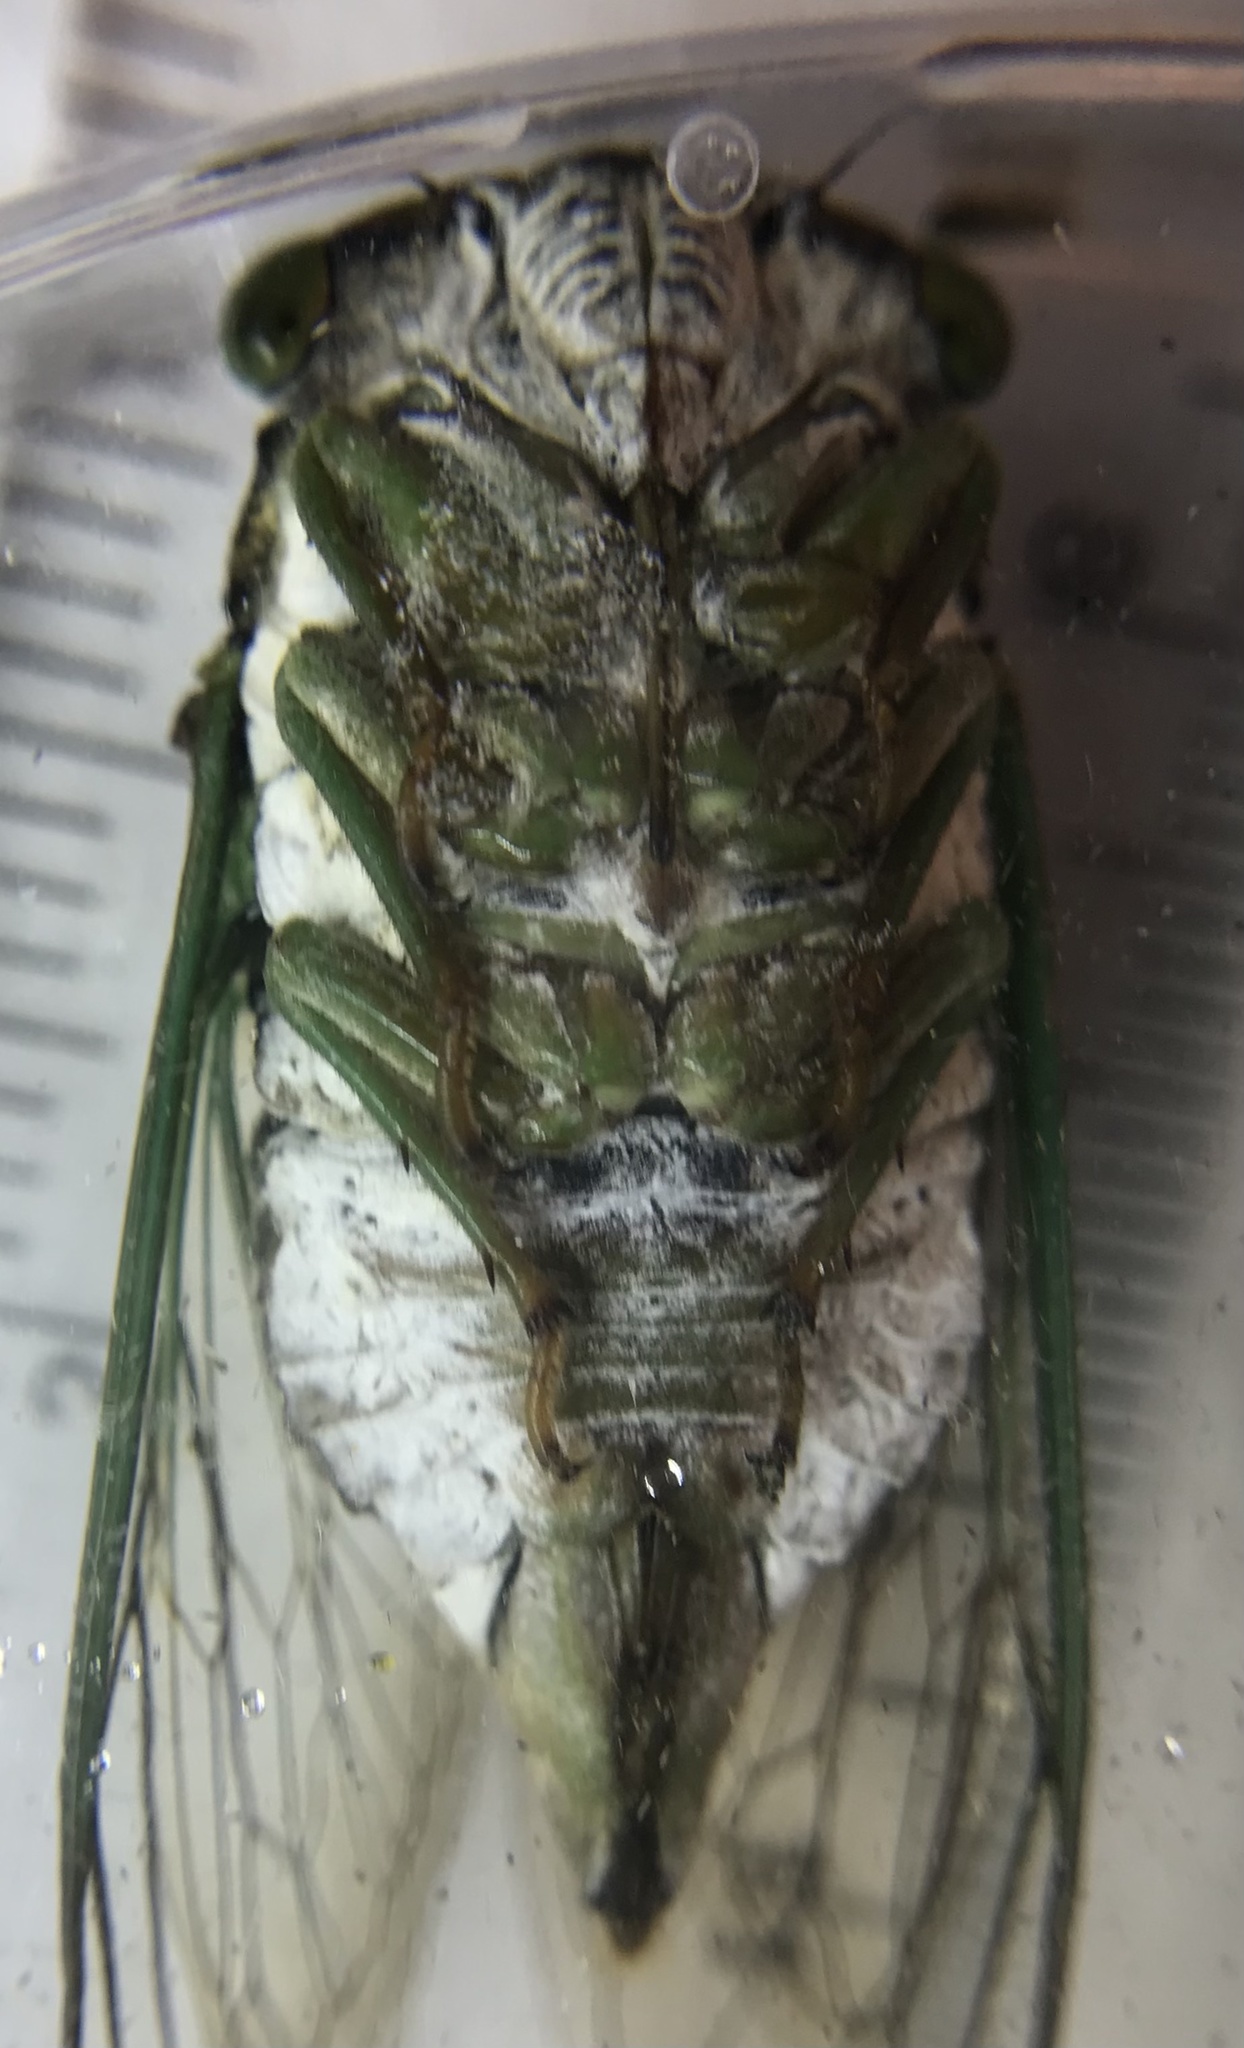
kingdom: Animalia
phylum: Arthropoda
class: Insecta
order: Hemiptera
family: Cicadidae
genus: Neotibicen
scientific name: Neotibicen tibicen
